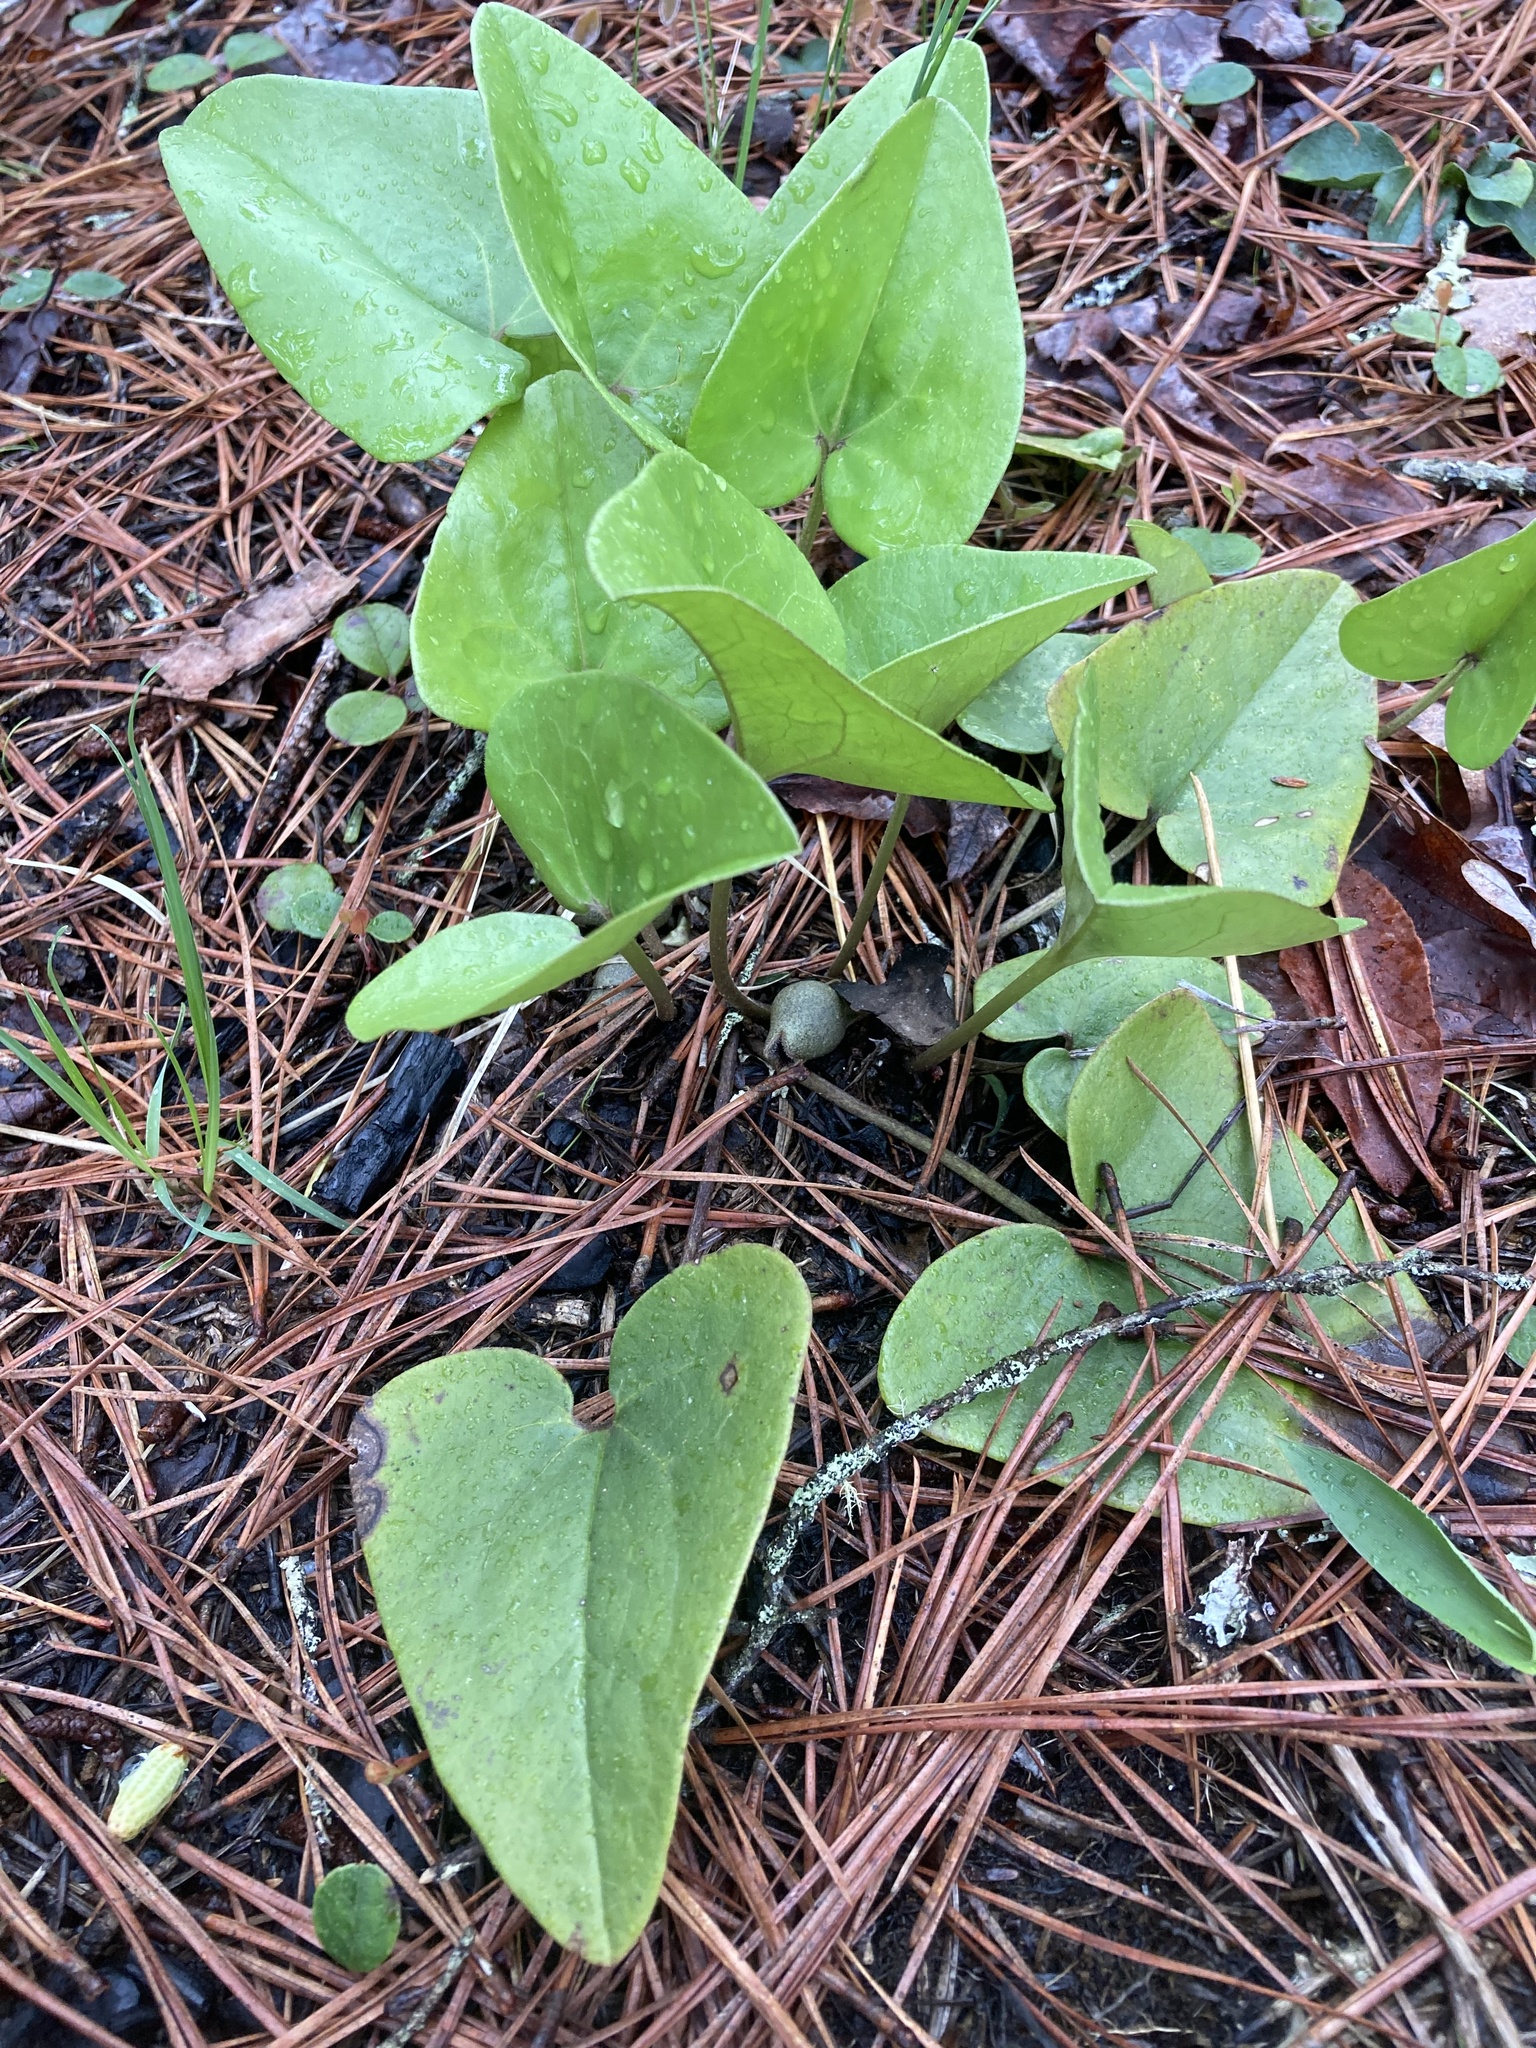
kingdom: Plantae
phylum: Tracheophyta
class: Magnoliopsida
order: Piperales
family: Aristolochiaceae
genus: Hexastylis
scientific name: Hexastylis arifolia
